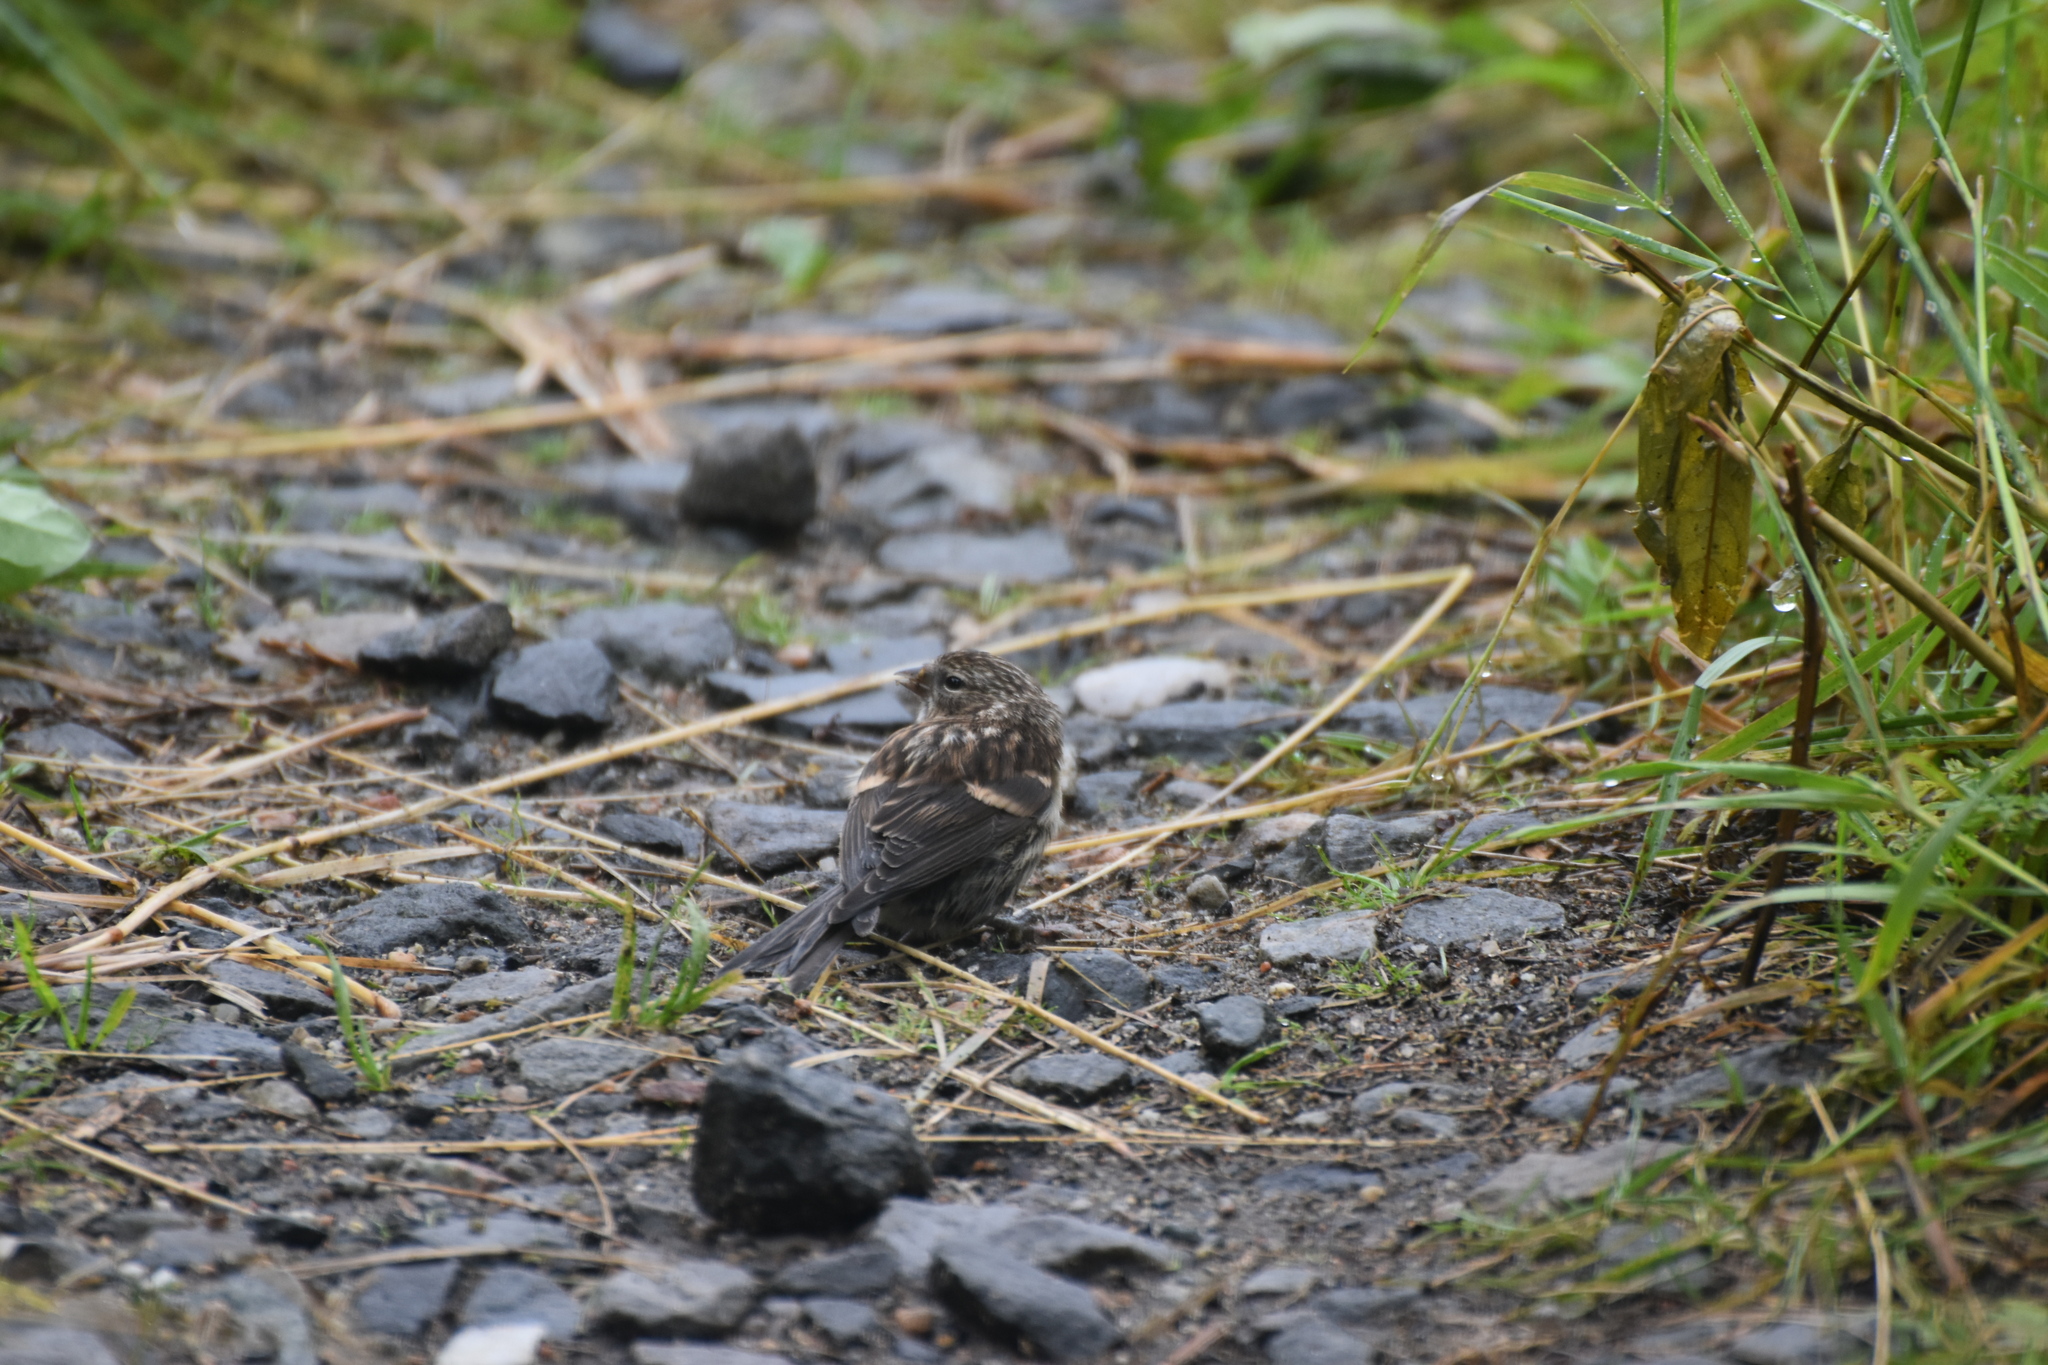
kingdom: Animalia
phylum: Chordata
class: Aves
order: Passeriformes
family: Fringillidae
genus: Acanthis
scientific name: Acanthis flammea
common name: Common redpoll
